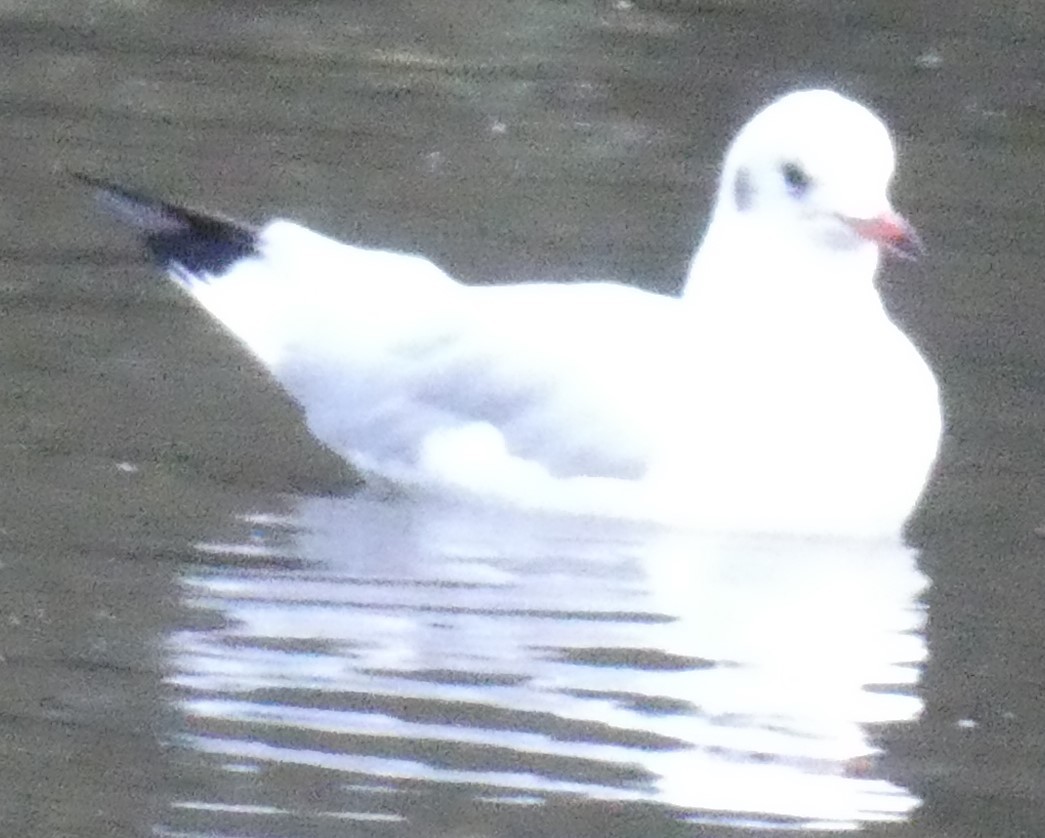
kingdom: Animalia
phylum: Chordata
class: Aves
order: Charadriiformes
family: Laridae
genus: Chroicocephalus
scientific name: Chroicocephalus ridibundus
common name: Black-headed gull
